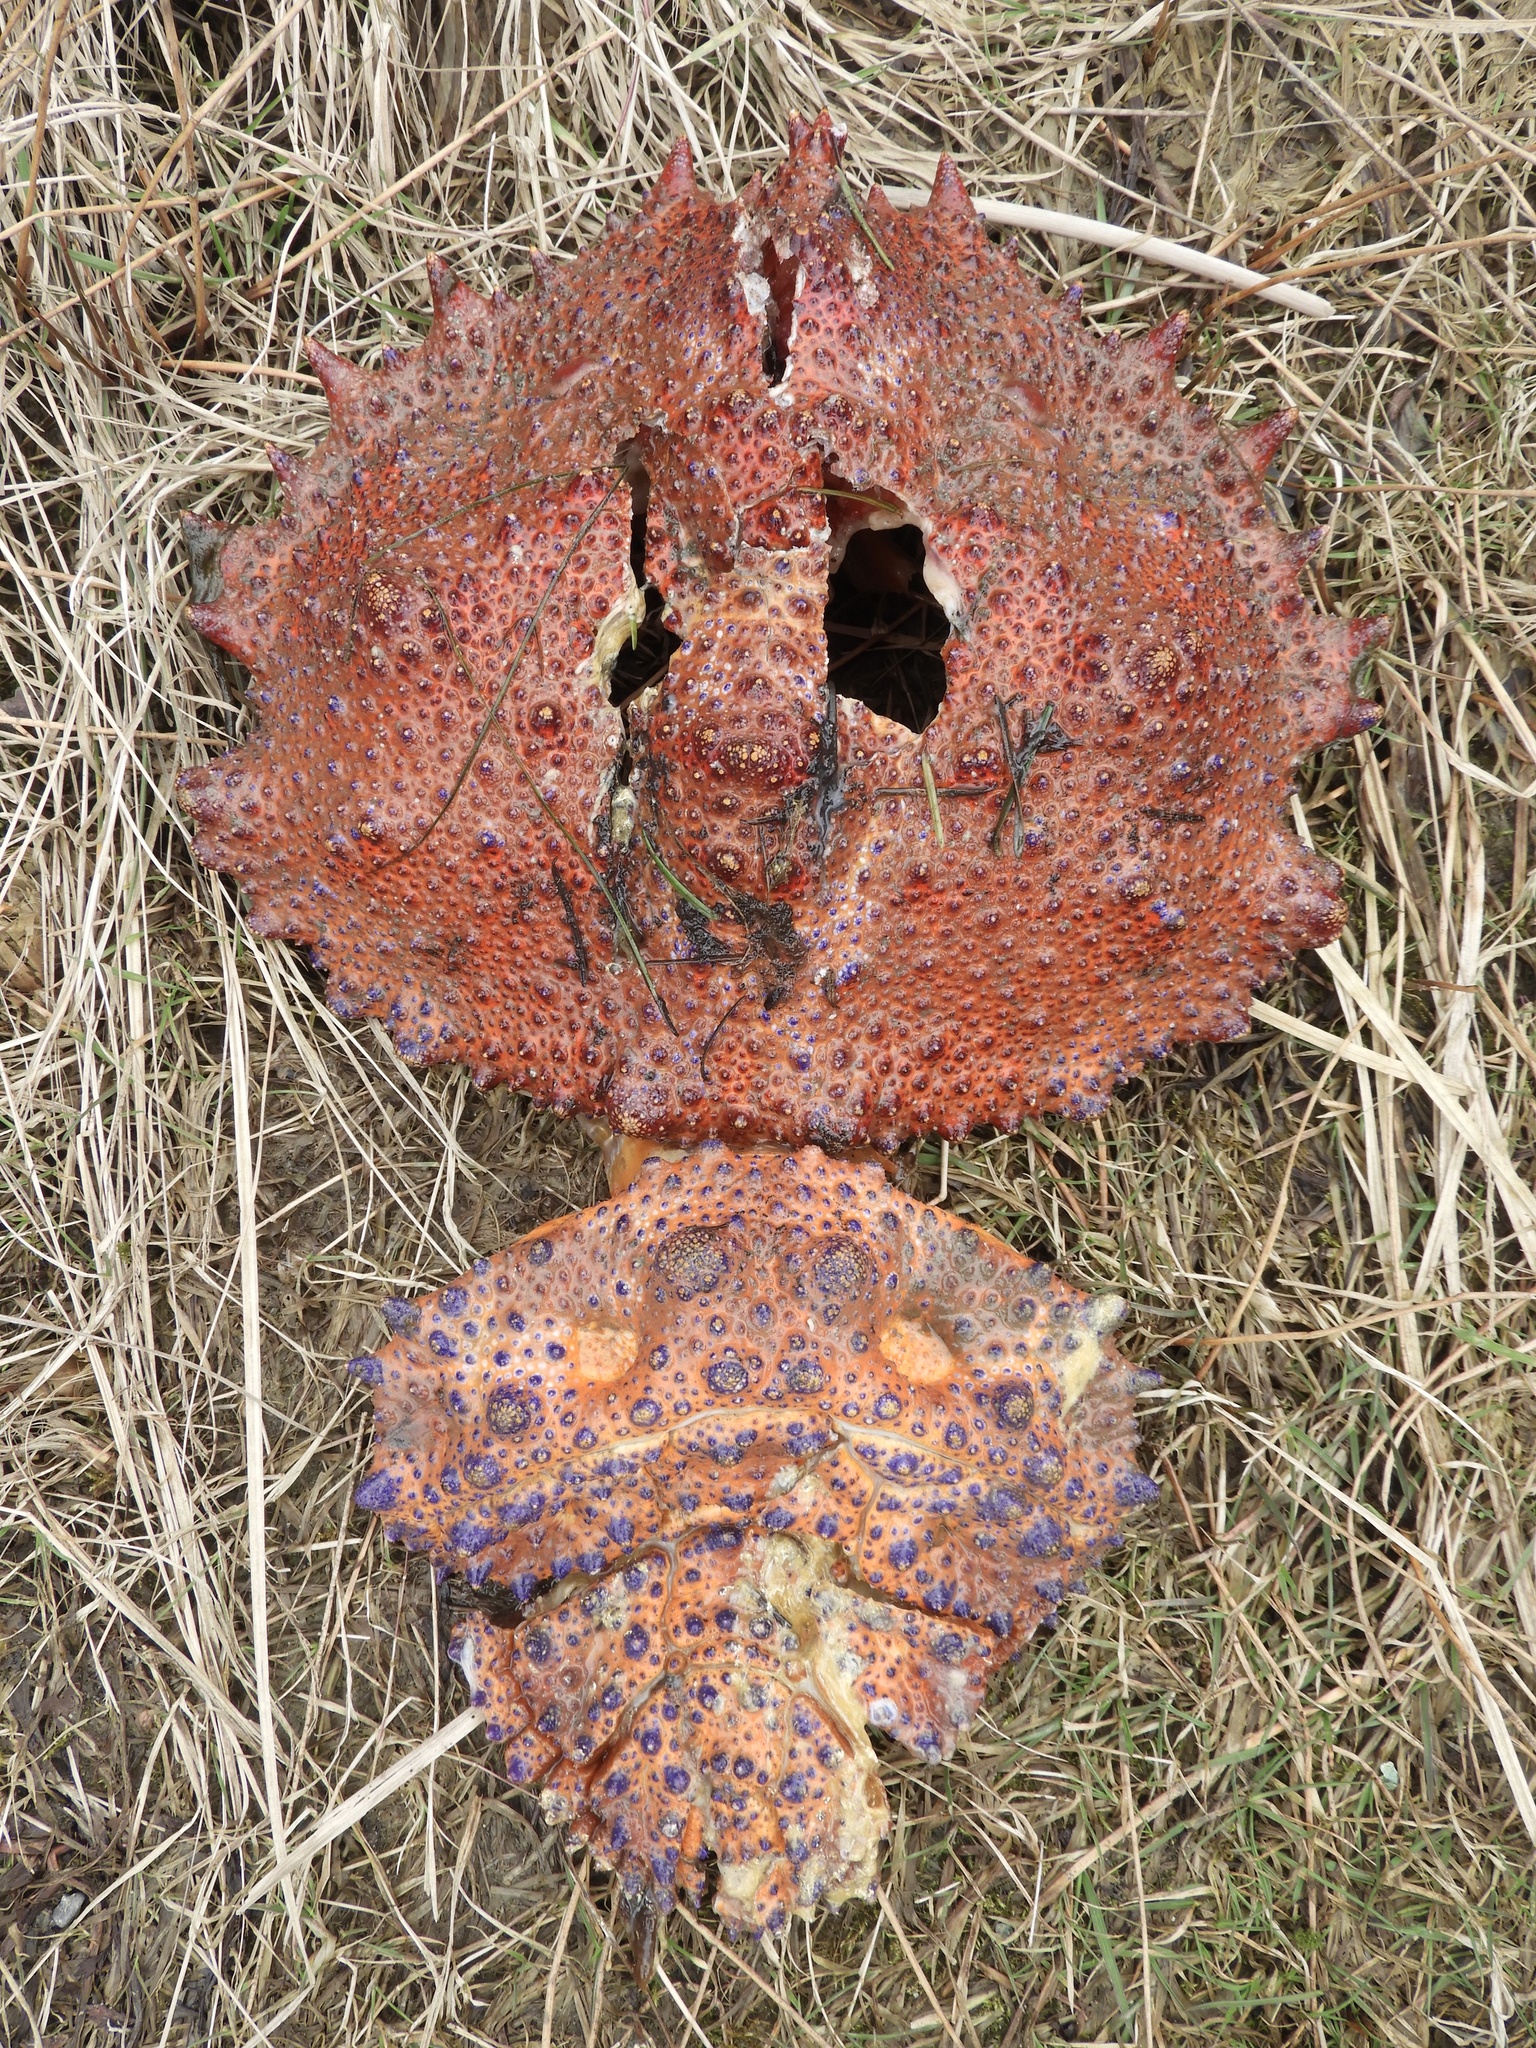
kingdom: Animalia
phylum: Arthropoda
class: Malacostraca
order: Decapoda
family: Lithodidae
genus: Echidnocerus
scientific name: Echidnocerus cibarius
